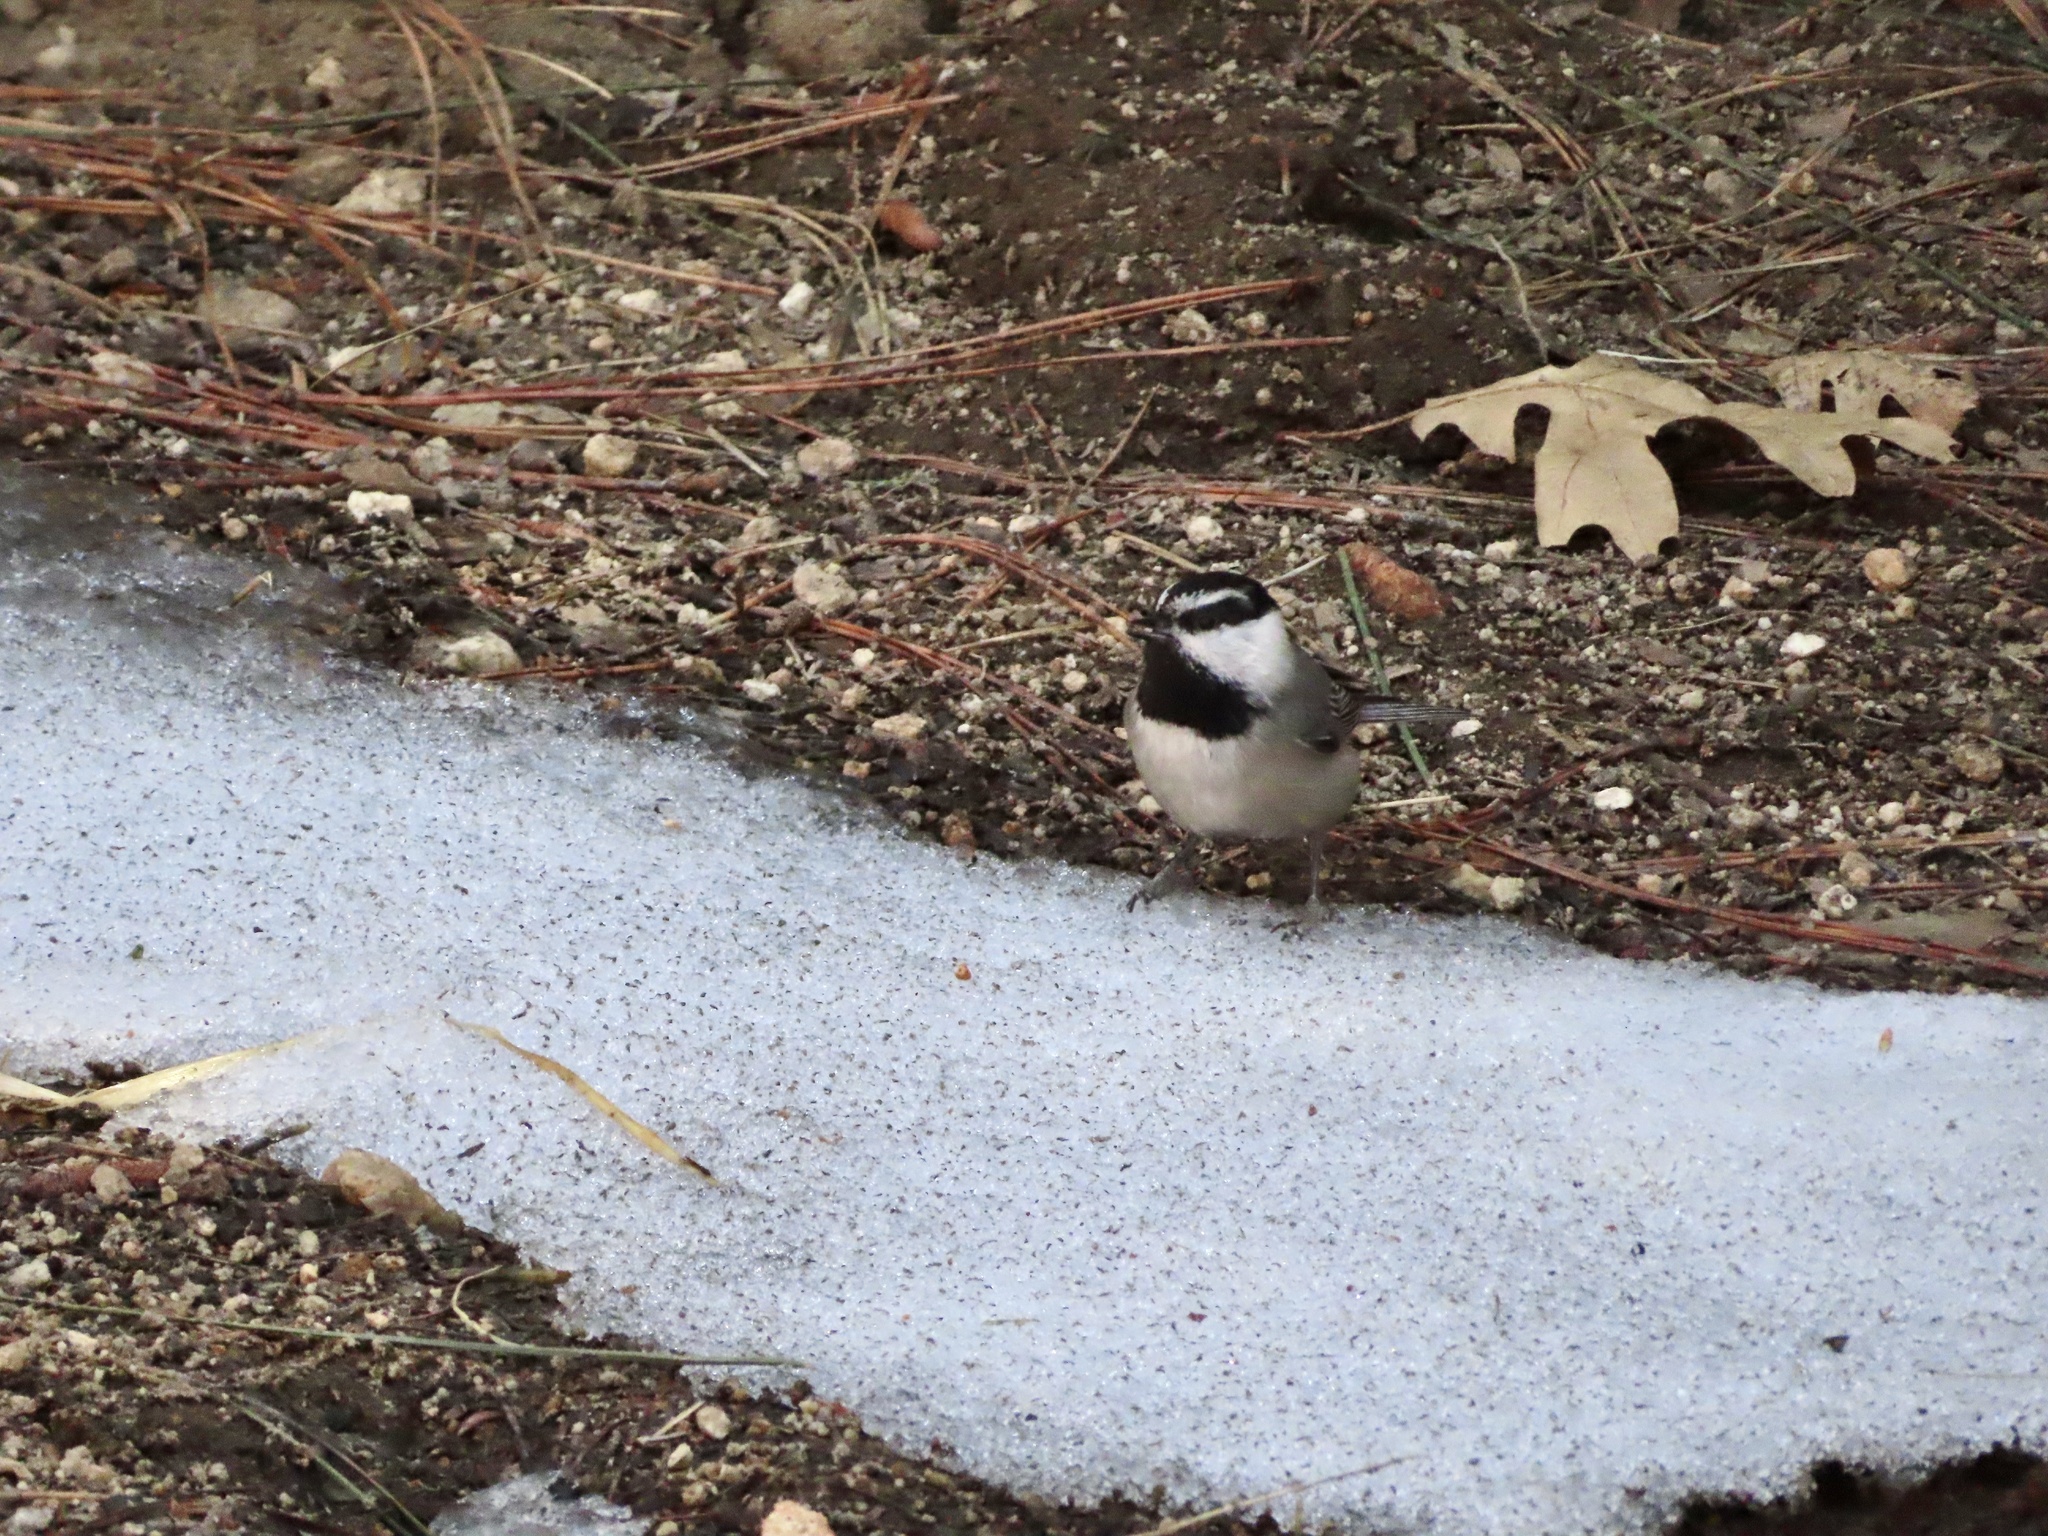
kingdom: Animalia
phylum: Chordata
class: Aves
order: Passeriformes
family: Paridae
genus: Poecile
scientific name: Poecile gambeli
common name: Mountain chickadee
